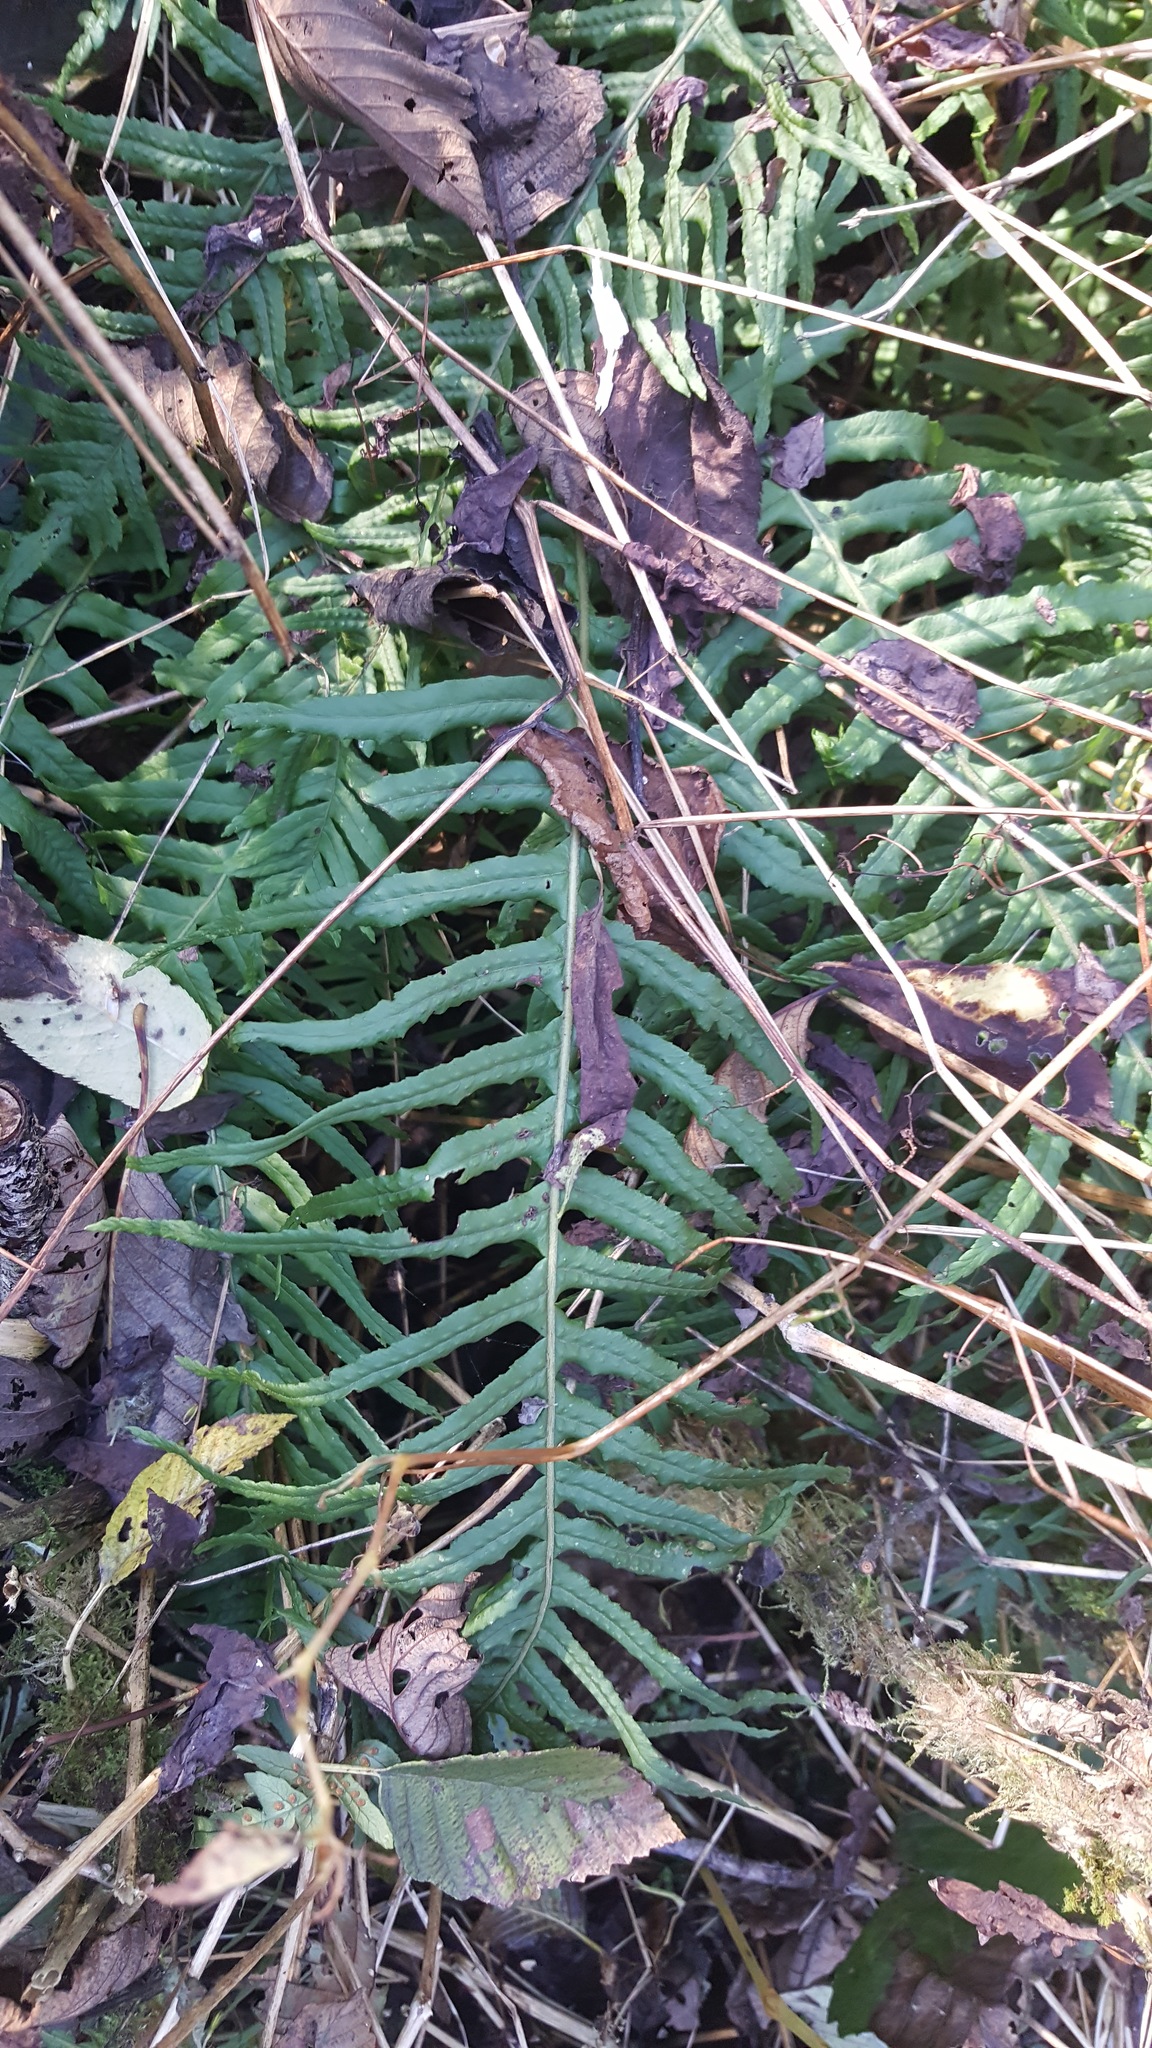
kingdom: Plantae
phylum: Tracheophyta
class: Polypodiopsida
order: Polypodiales
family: Polypodiaceae
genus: Polypodium
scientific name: Polypodium glycyrrhiza
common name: Licorice fern
